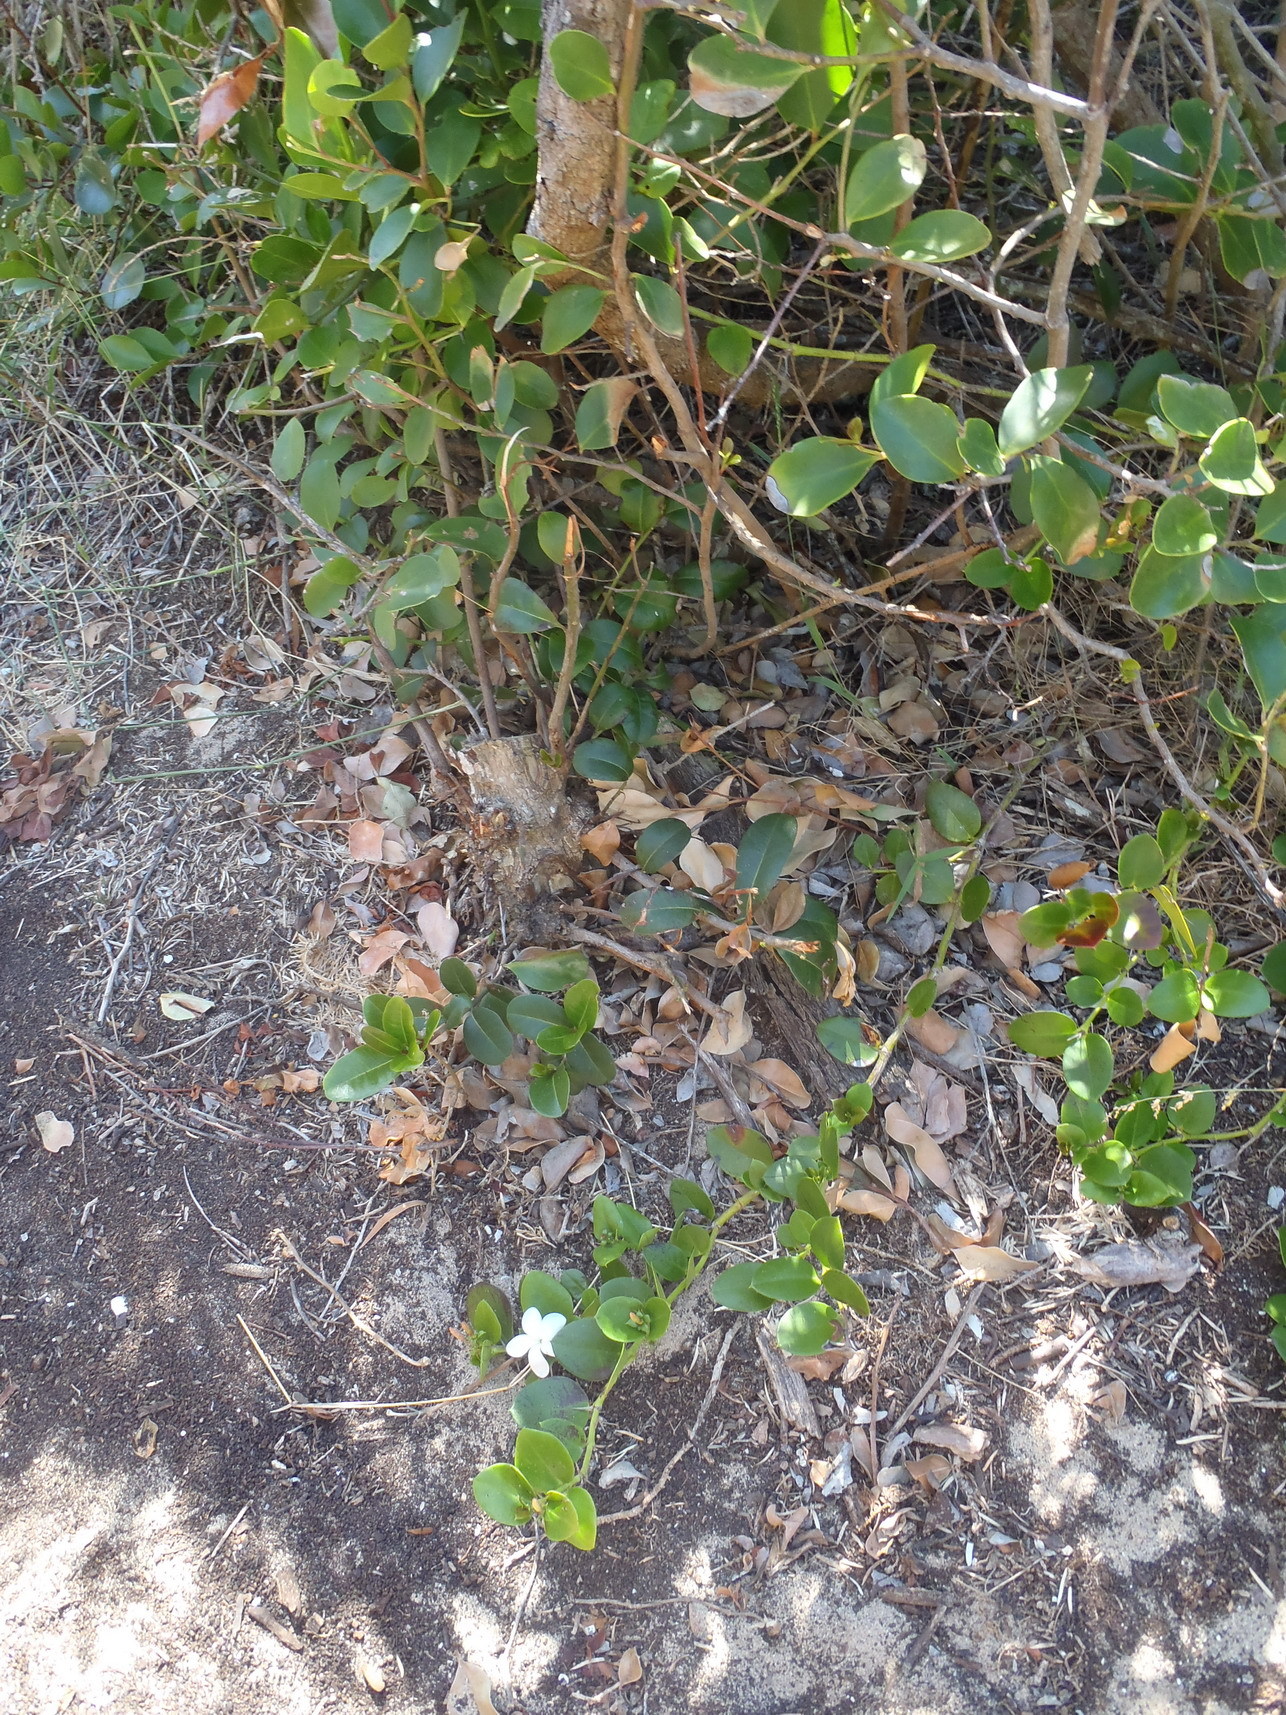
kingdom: Plantae
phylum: Tracheophyta
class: Magnoliopsida
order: Gentianales
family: Apocynaceae
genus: Carissa
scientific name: Carissa macrocarpa
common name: Natal plum
